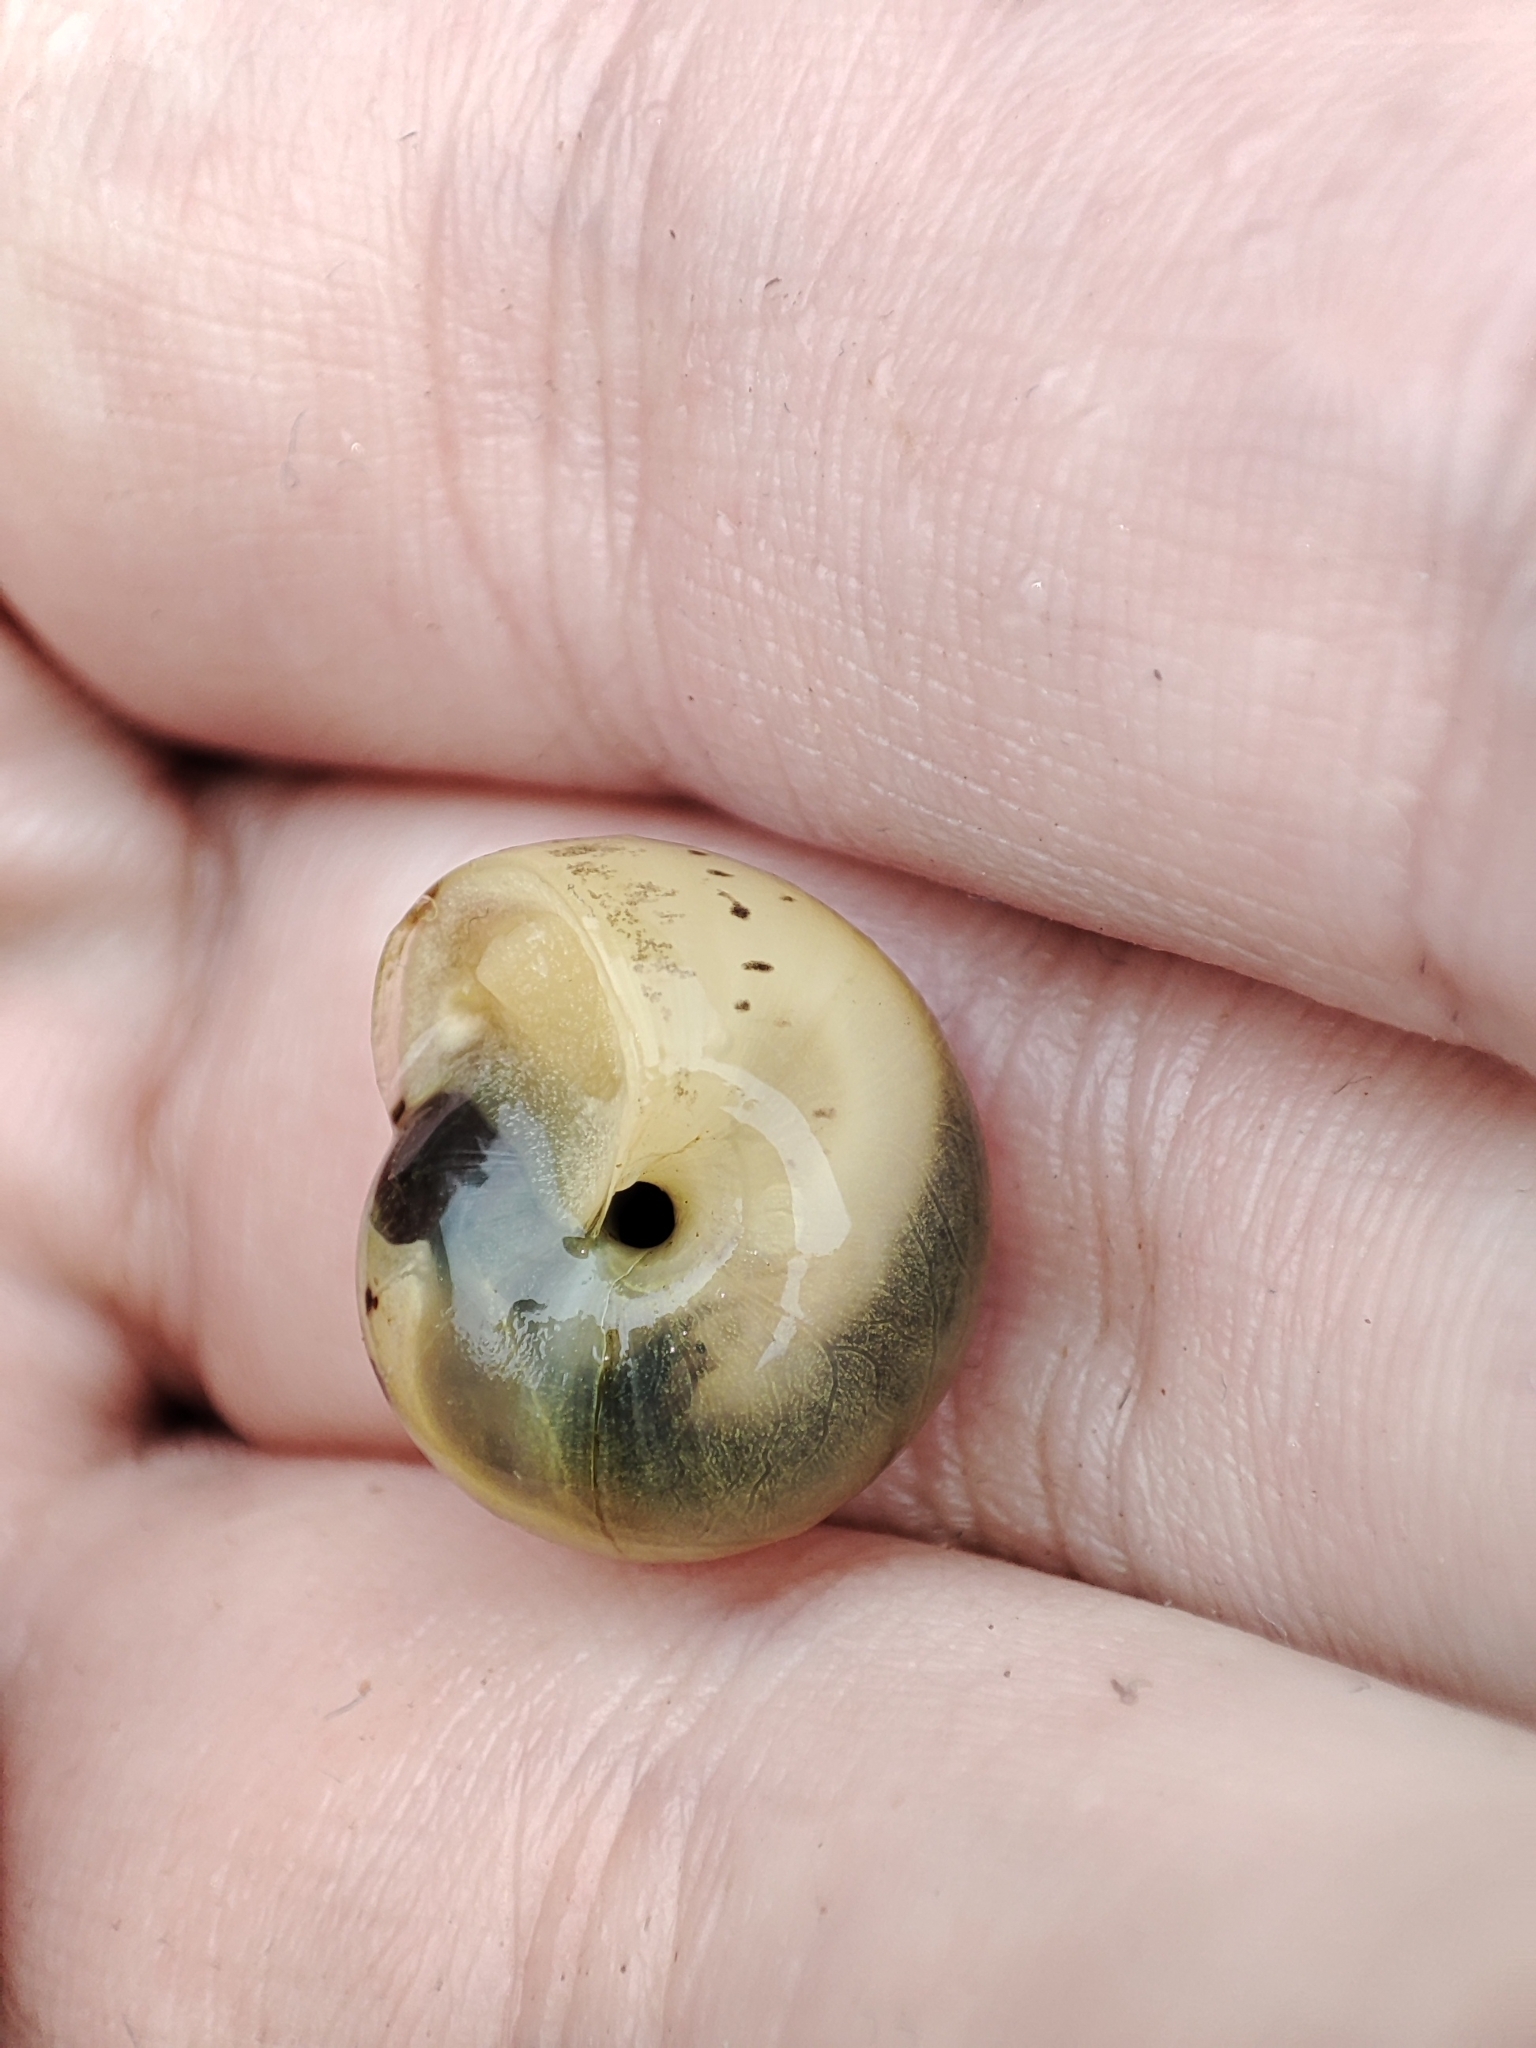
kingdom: Animalia
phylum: Mollusca
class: Gastropoda
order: Stylommatophora
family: Camaenidae
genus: Fruticicola
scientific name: Fruticicola fruticum
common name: Bush snail
